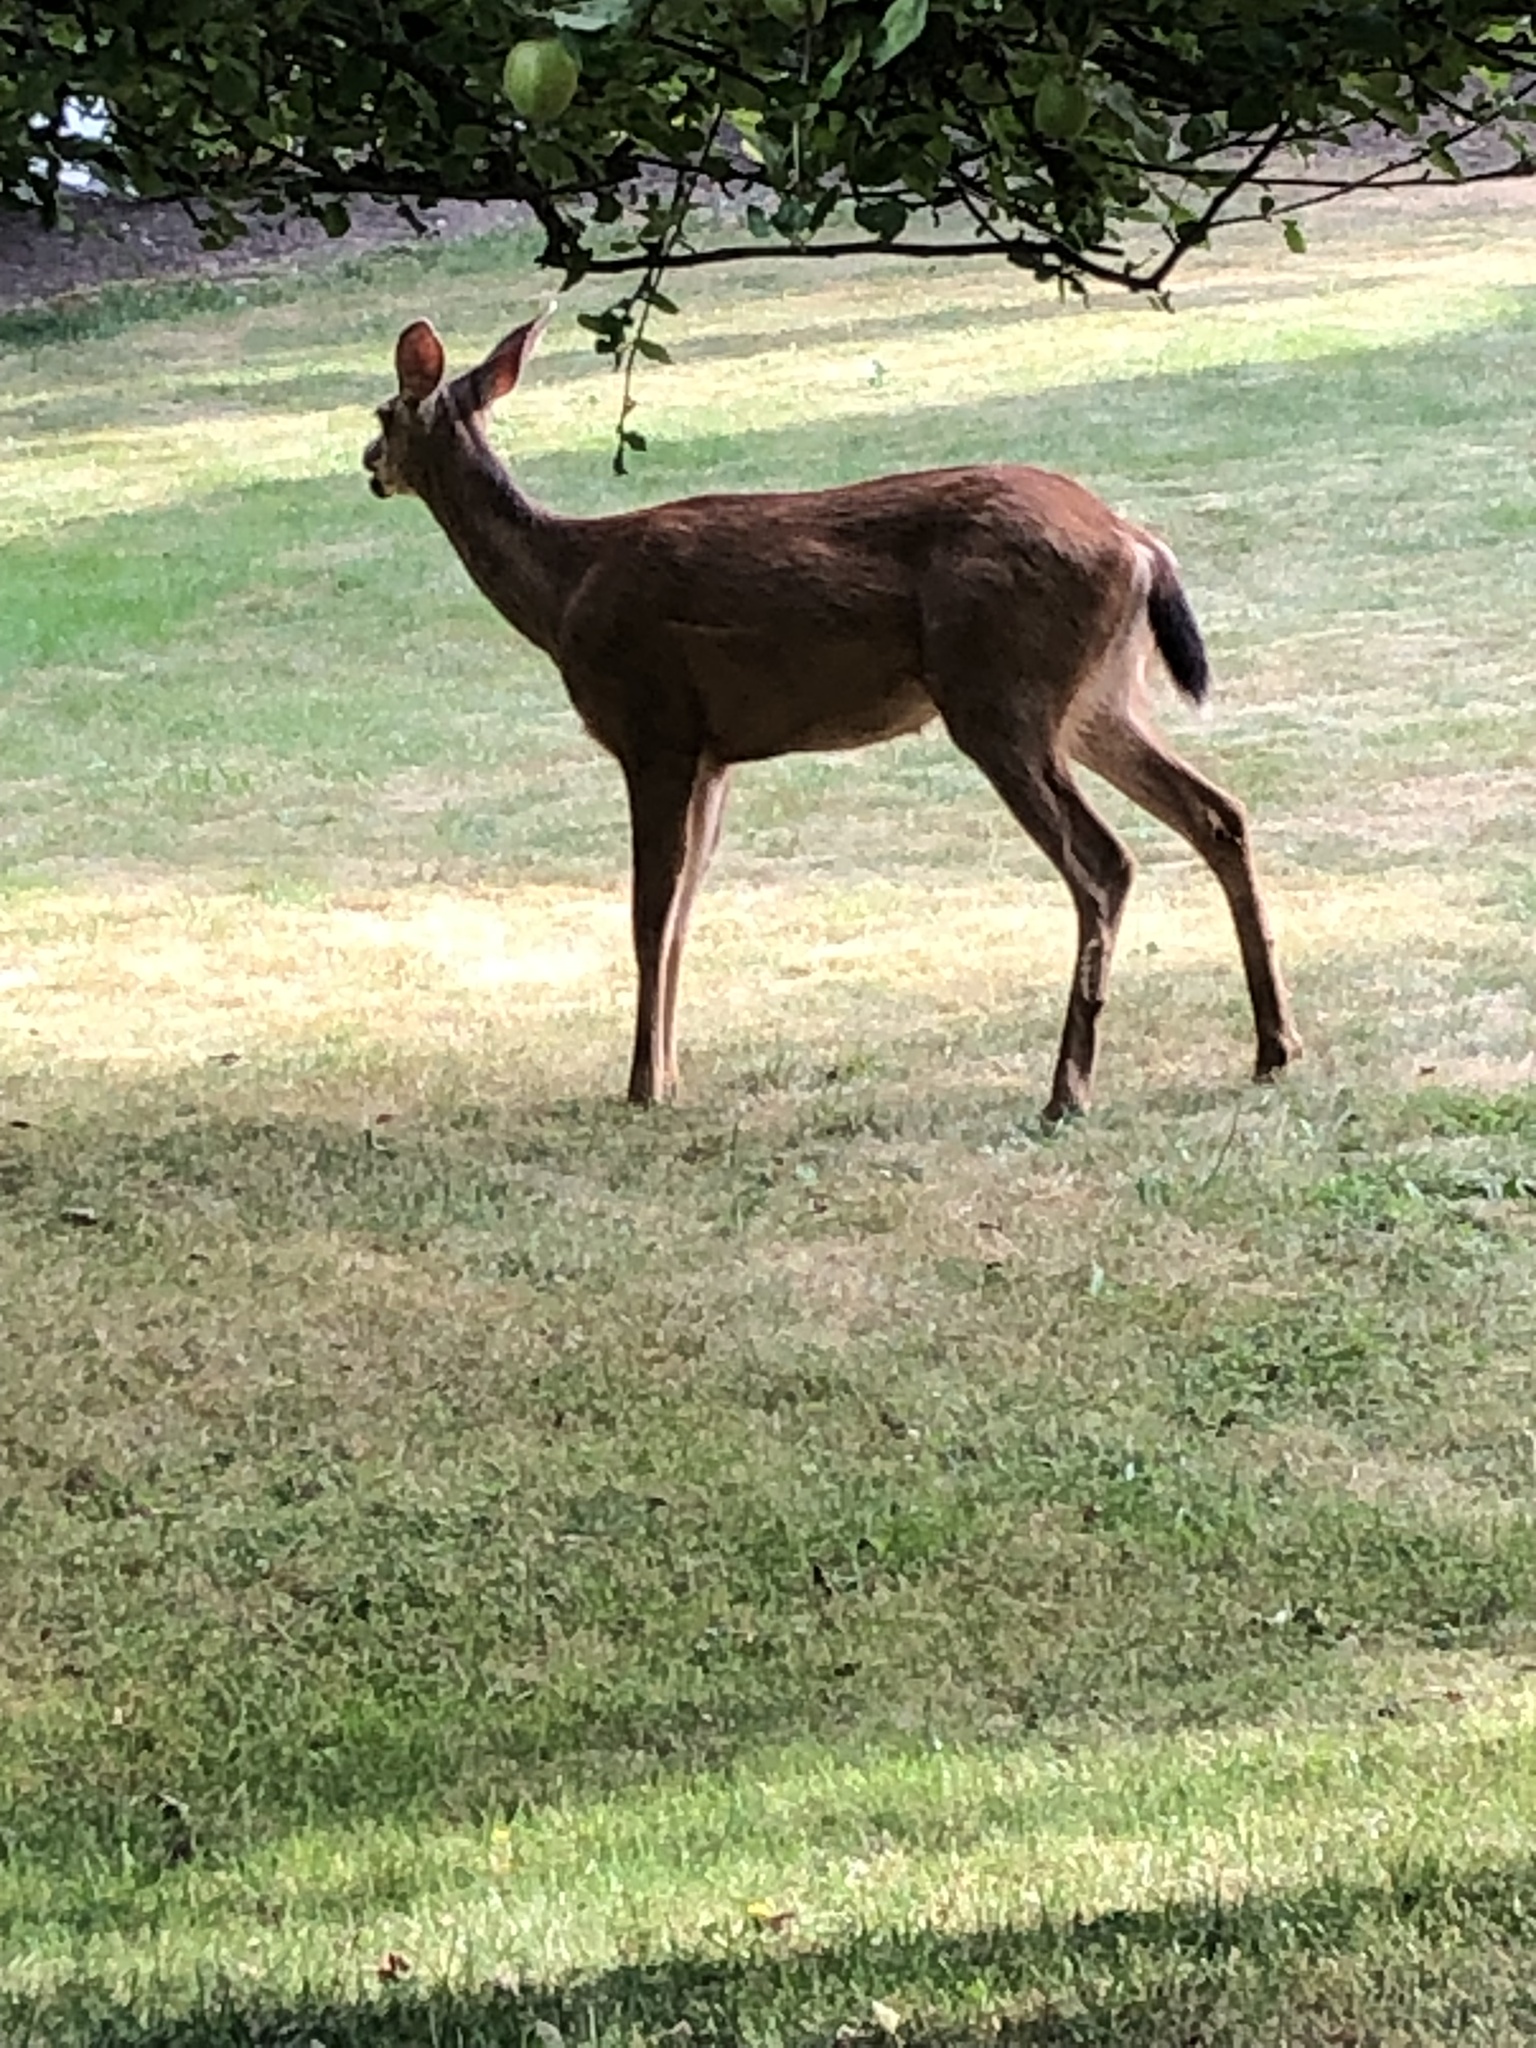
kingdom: Animalia
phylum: Chordata
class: Mammalia
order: Artiodactyla
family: Cervidae
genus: Odocoileus
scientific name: Odocoileus hemionus
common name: Mule deer
